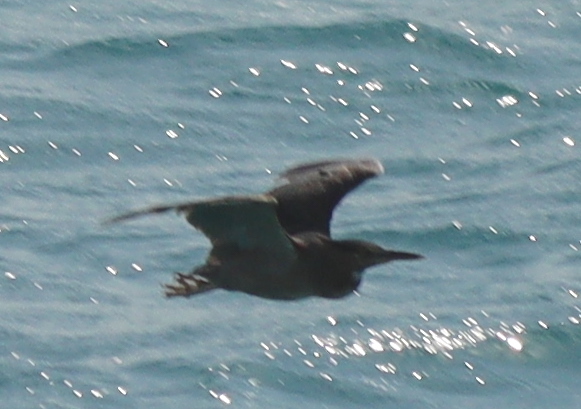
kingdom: Animalia
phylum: Chordata
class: Aves
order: Pelecaniformes
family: Ardeidae
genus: Butorides
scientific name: Butorides striata
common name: Striated heron
